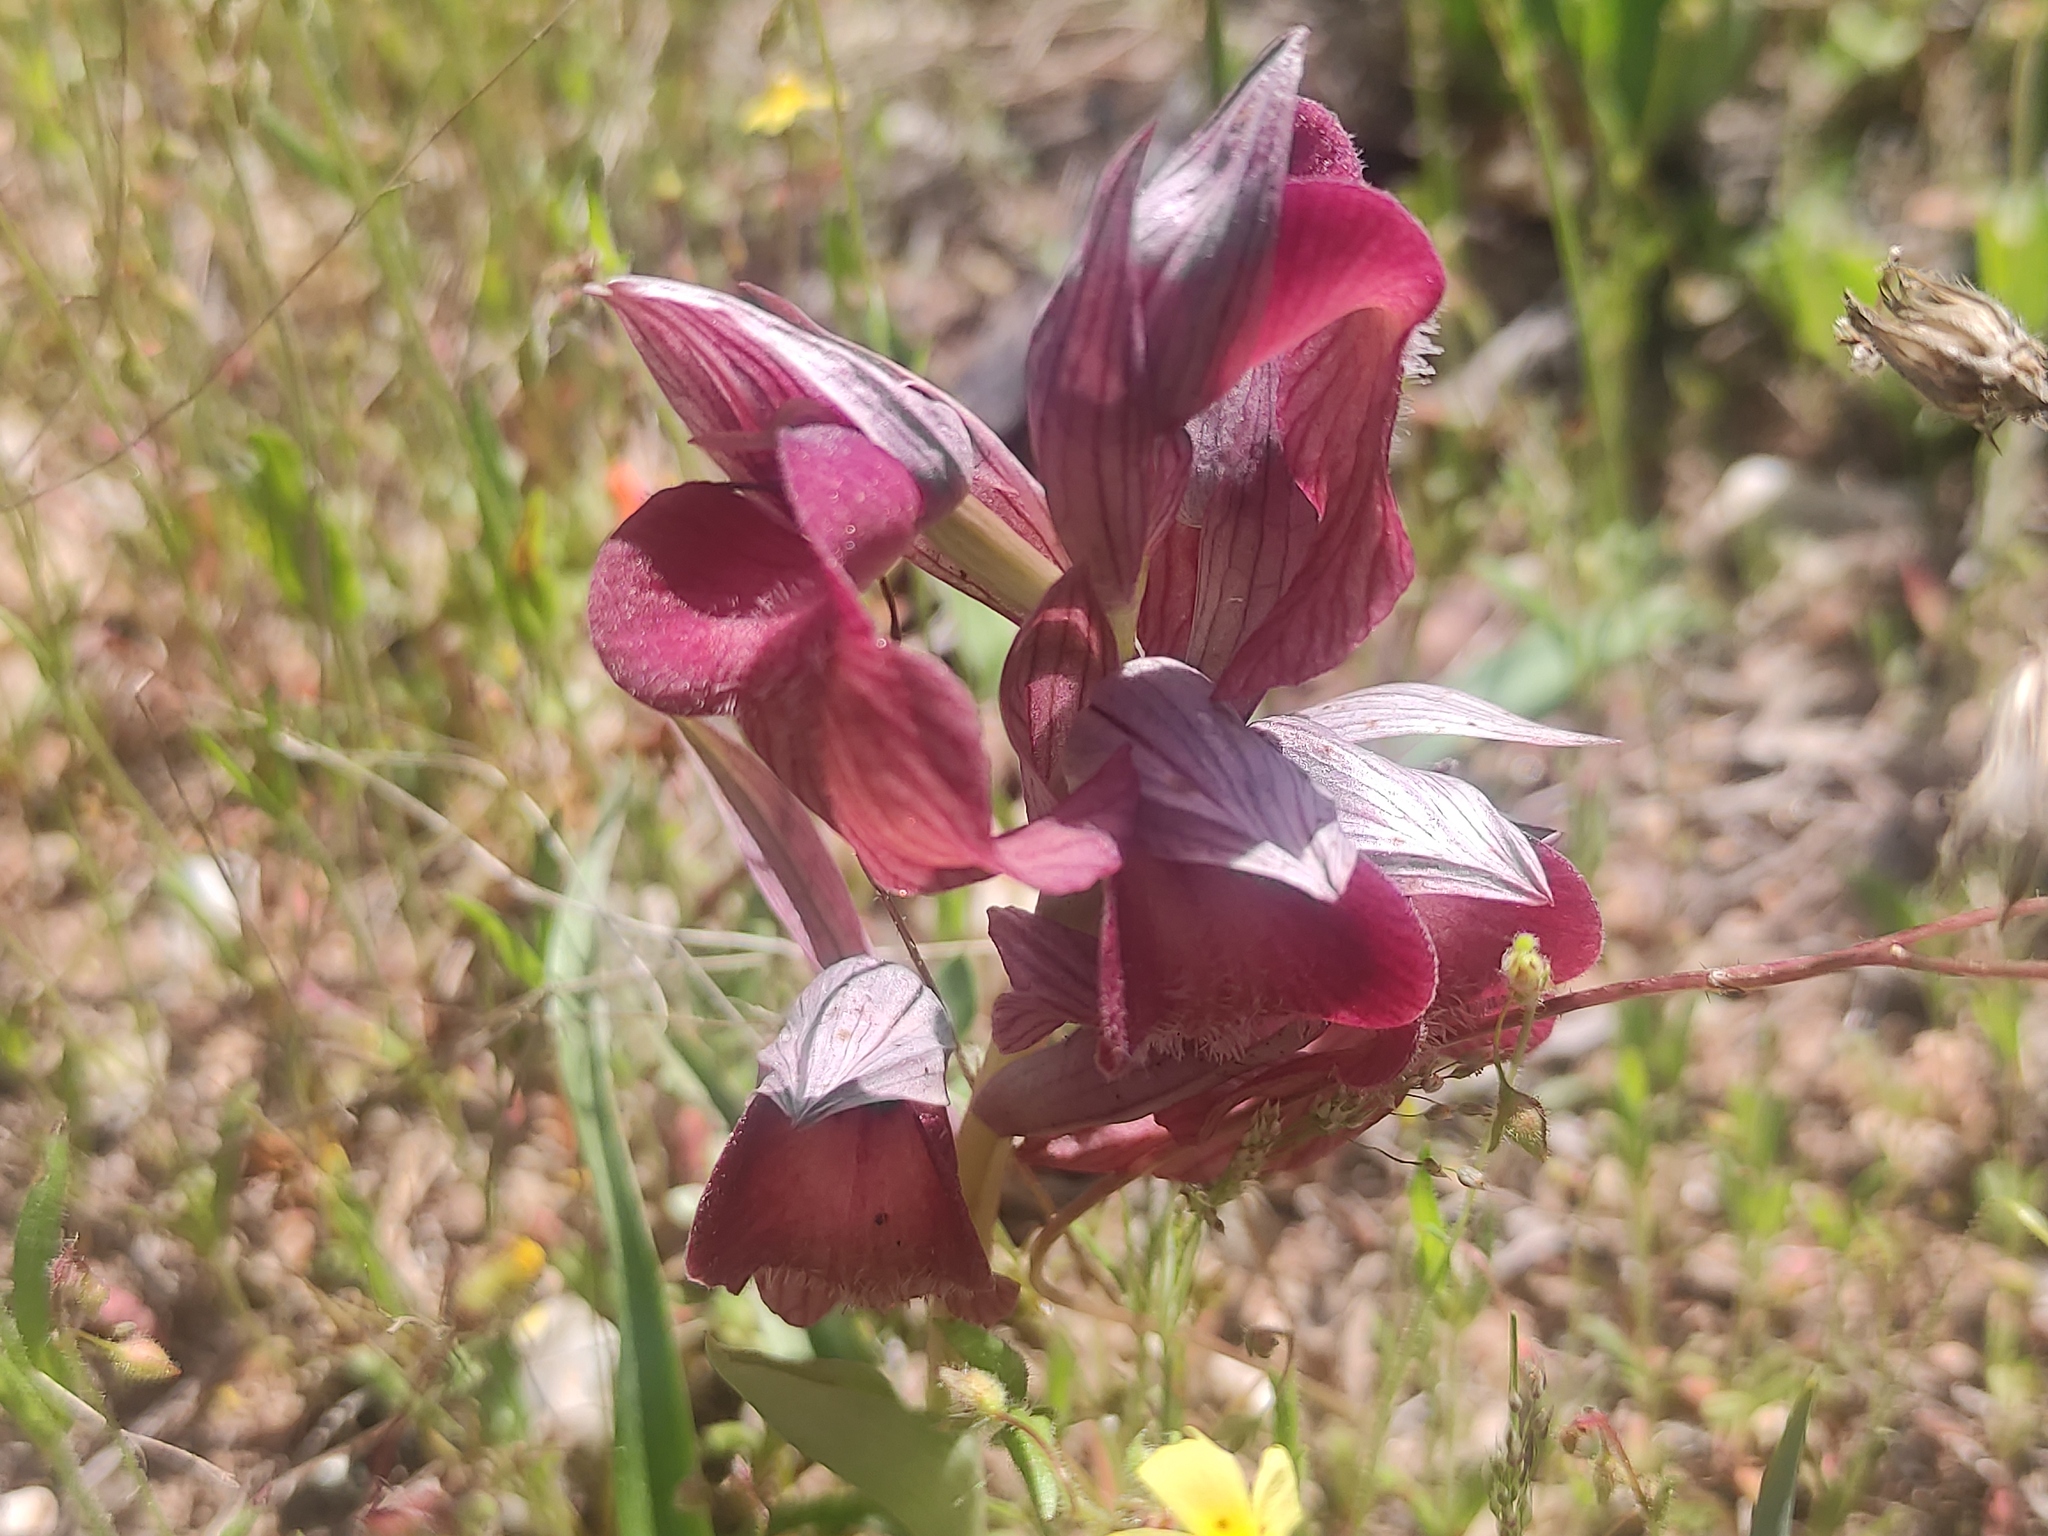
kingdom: Plantae
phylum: Tracheophyta
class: Liliopsida
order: Asparagales
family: Orchidaceae
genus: Serapias
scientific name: Serapias neglecta
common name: Neglected serapias
